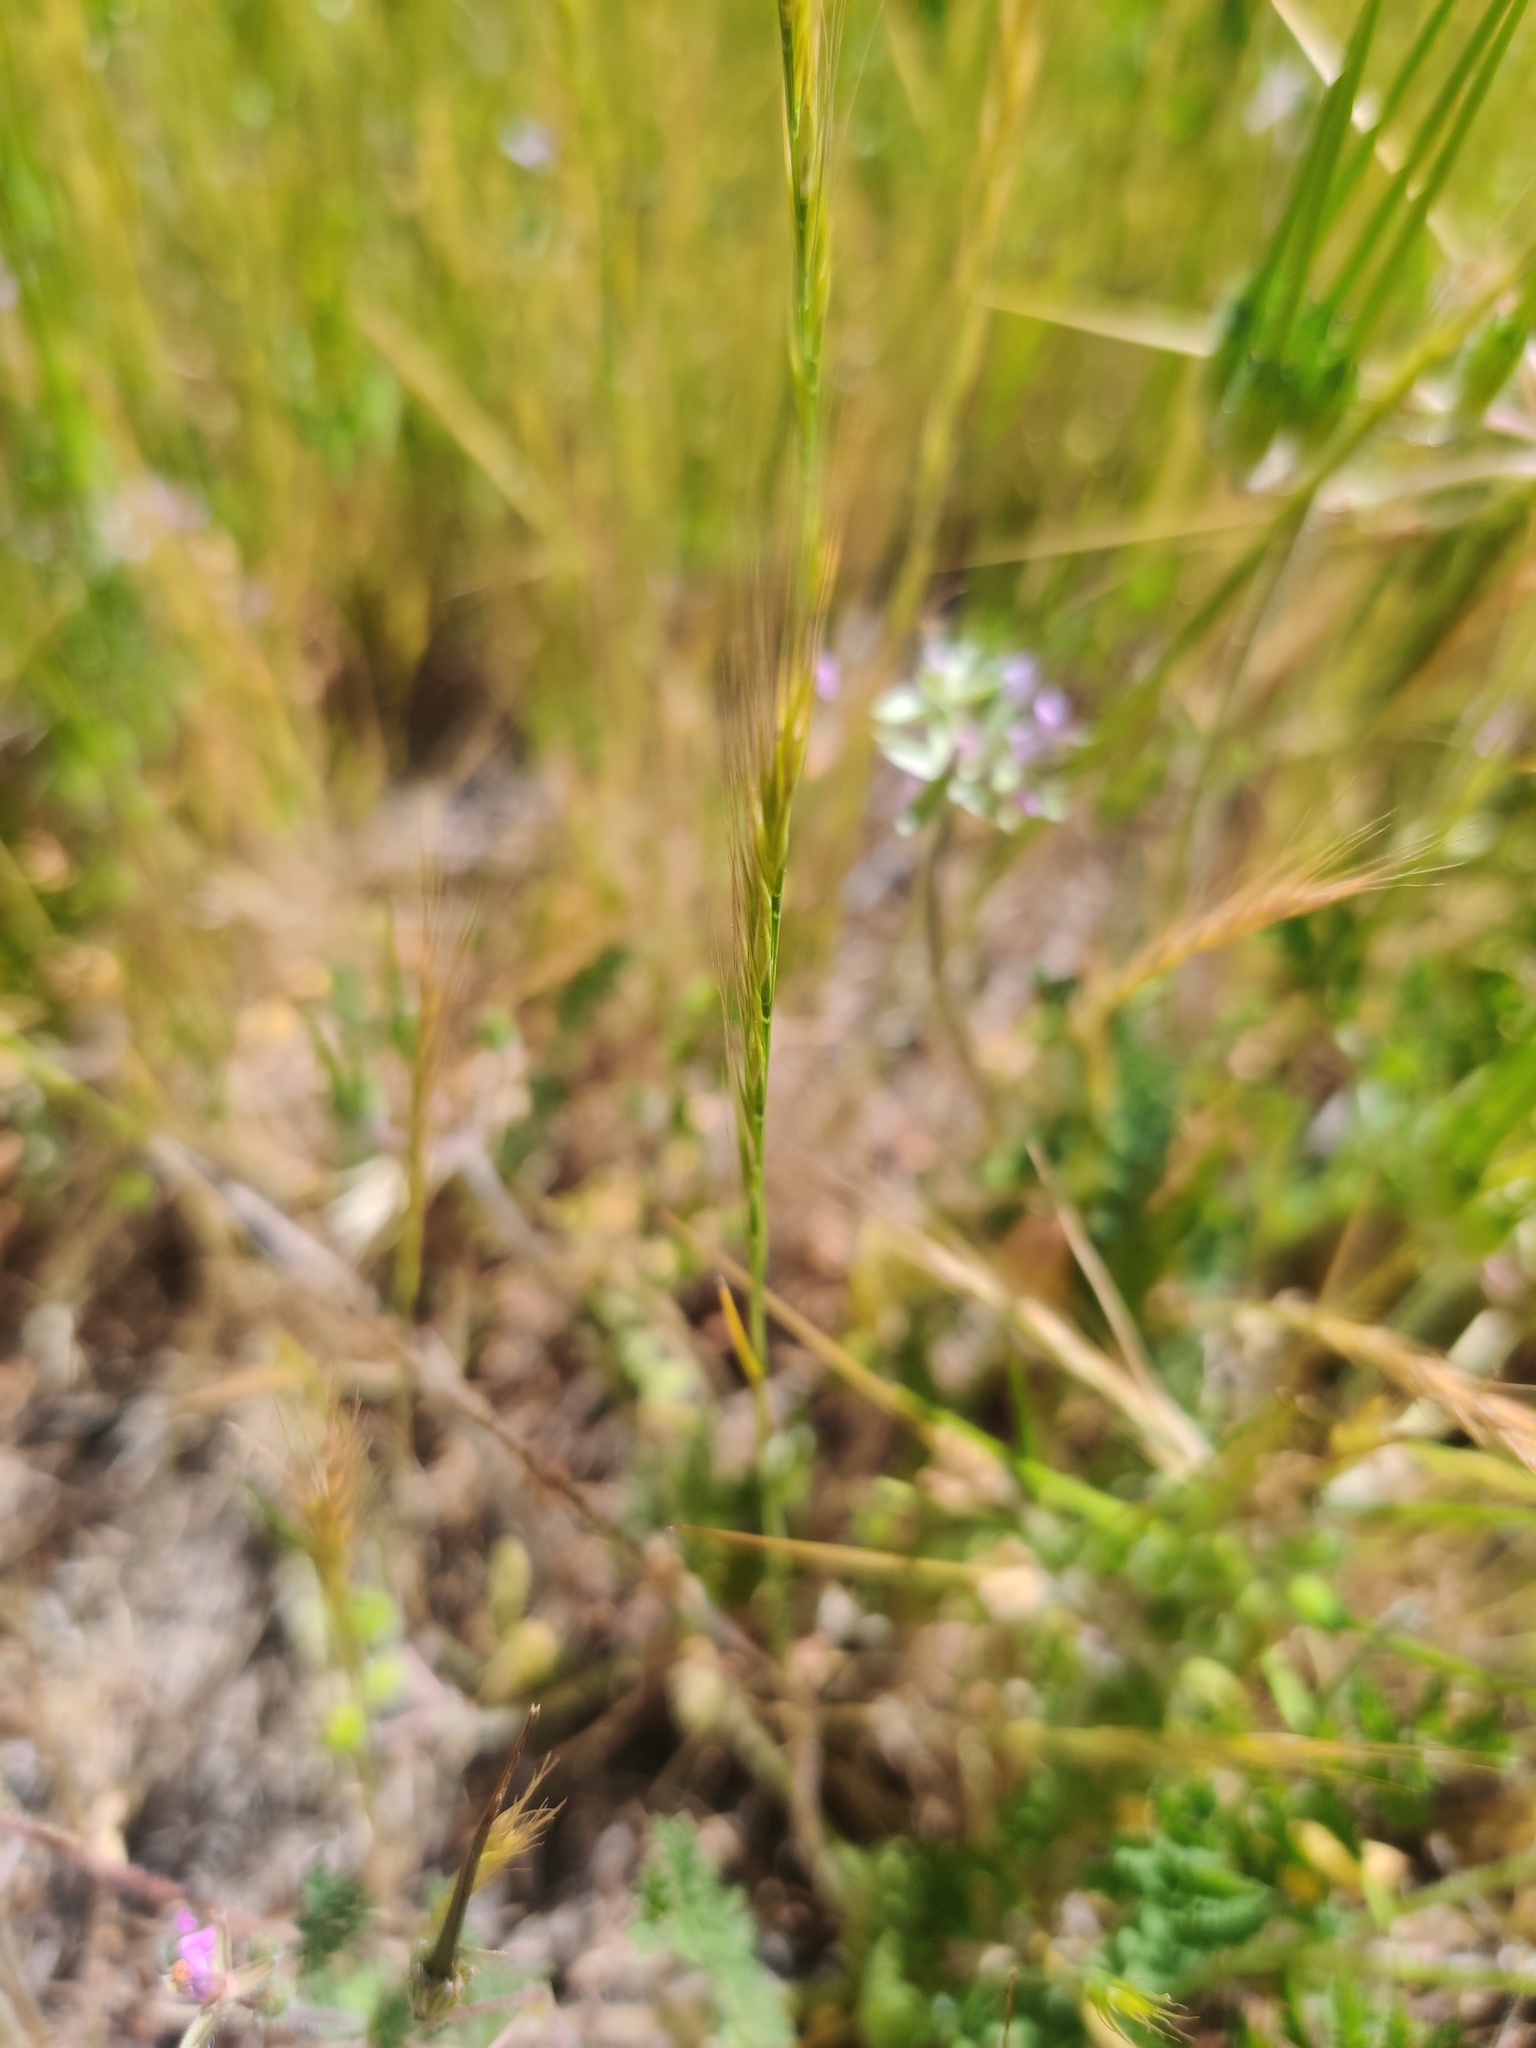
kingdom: Plantae
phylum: Tracheophyta
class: Liliopsida
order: Poales
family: Poaceae
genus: Festuca
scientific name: Festuca myuros
